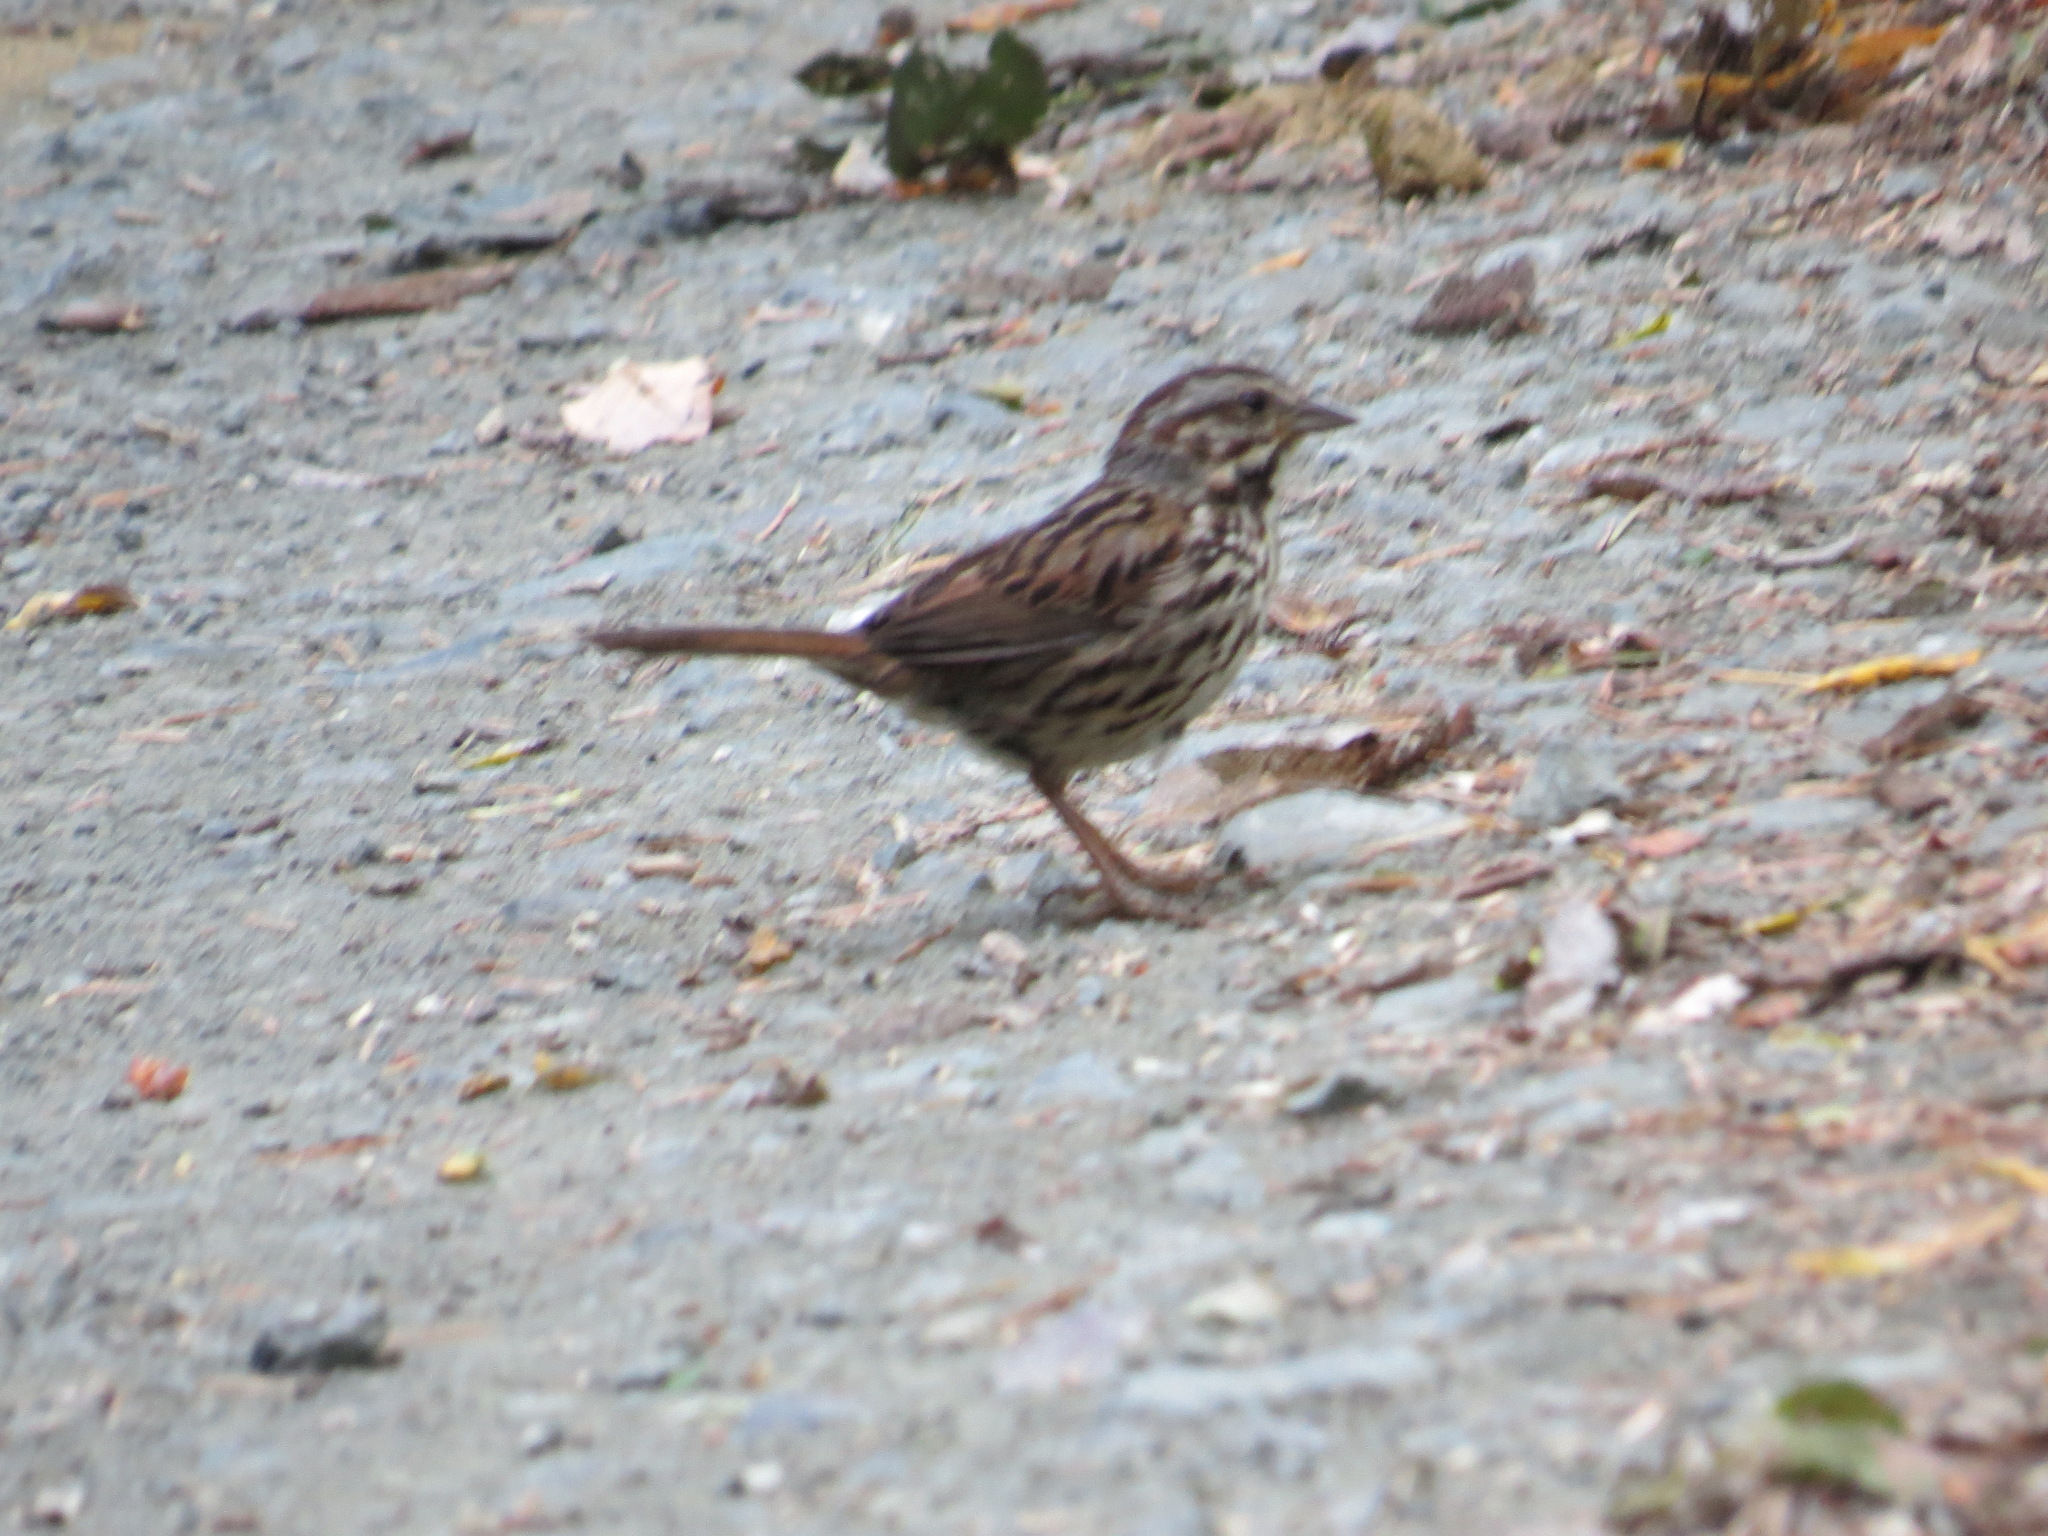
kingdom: Animalia
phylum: Chordata
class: Aves
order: Passeriformes
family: Passerellidae
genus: Melospiza
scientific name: Melospiza melodia
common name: Song sparrow
